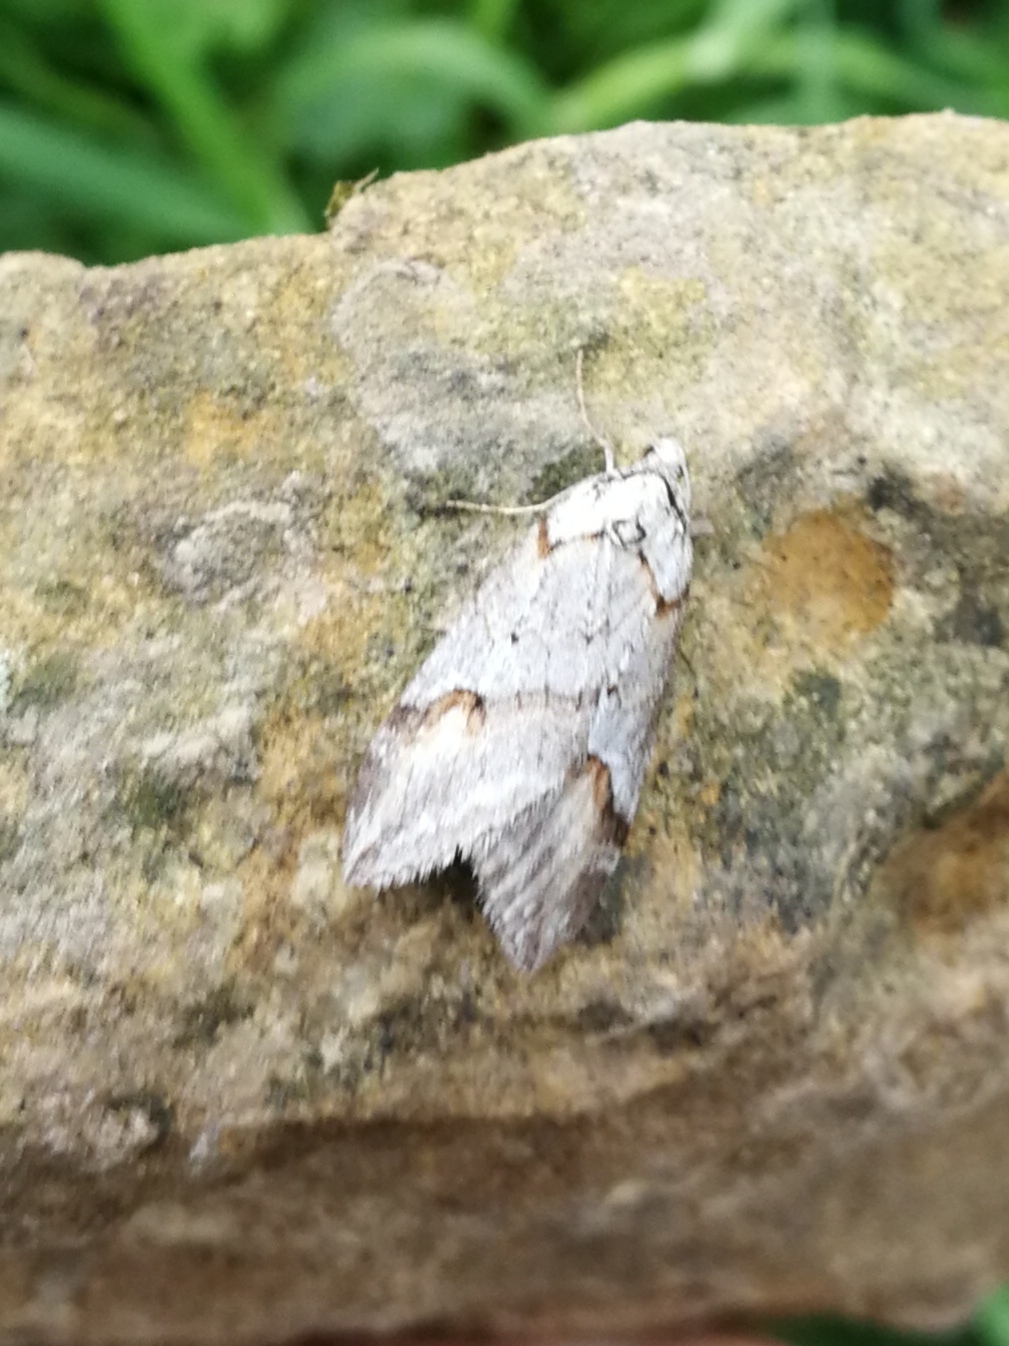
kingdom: Animalia
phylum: Arthropoda
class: Insecta
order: Lepidoptera
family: Geometridae
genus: Chesias
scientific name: Chesias rufata
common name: Broom-tip
